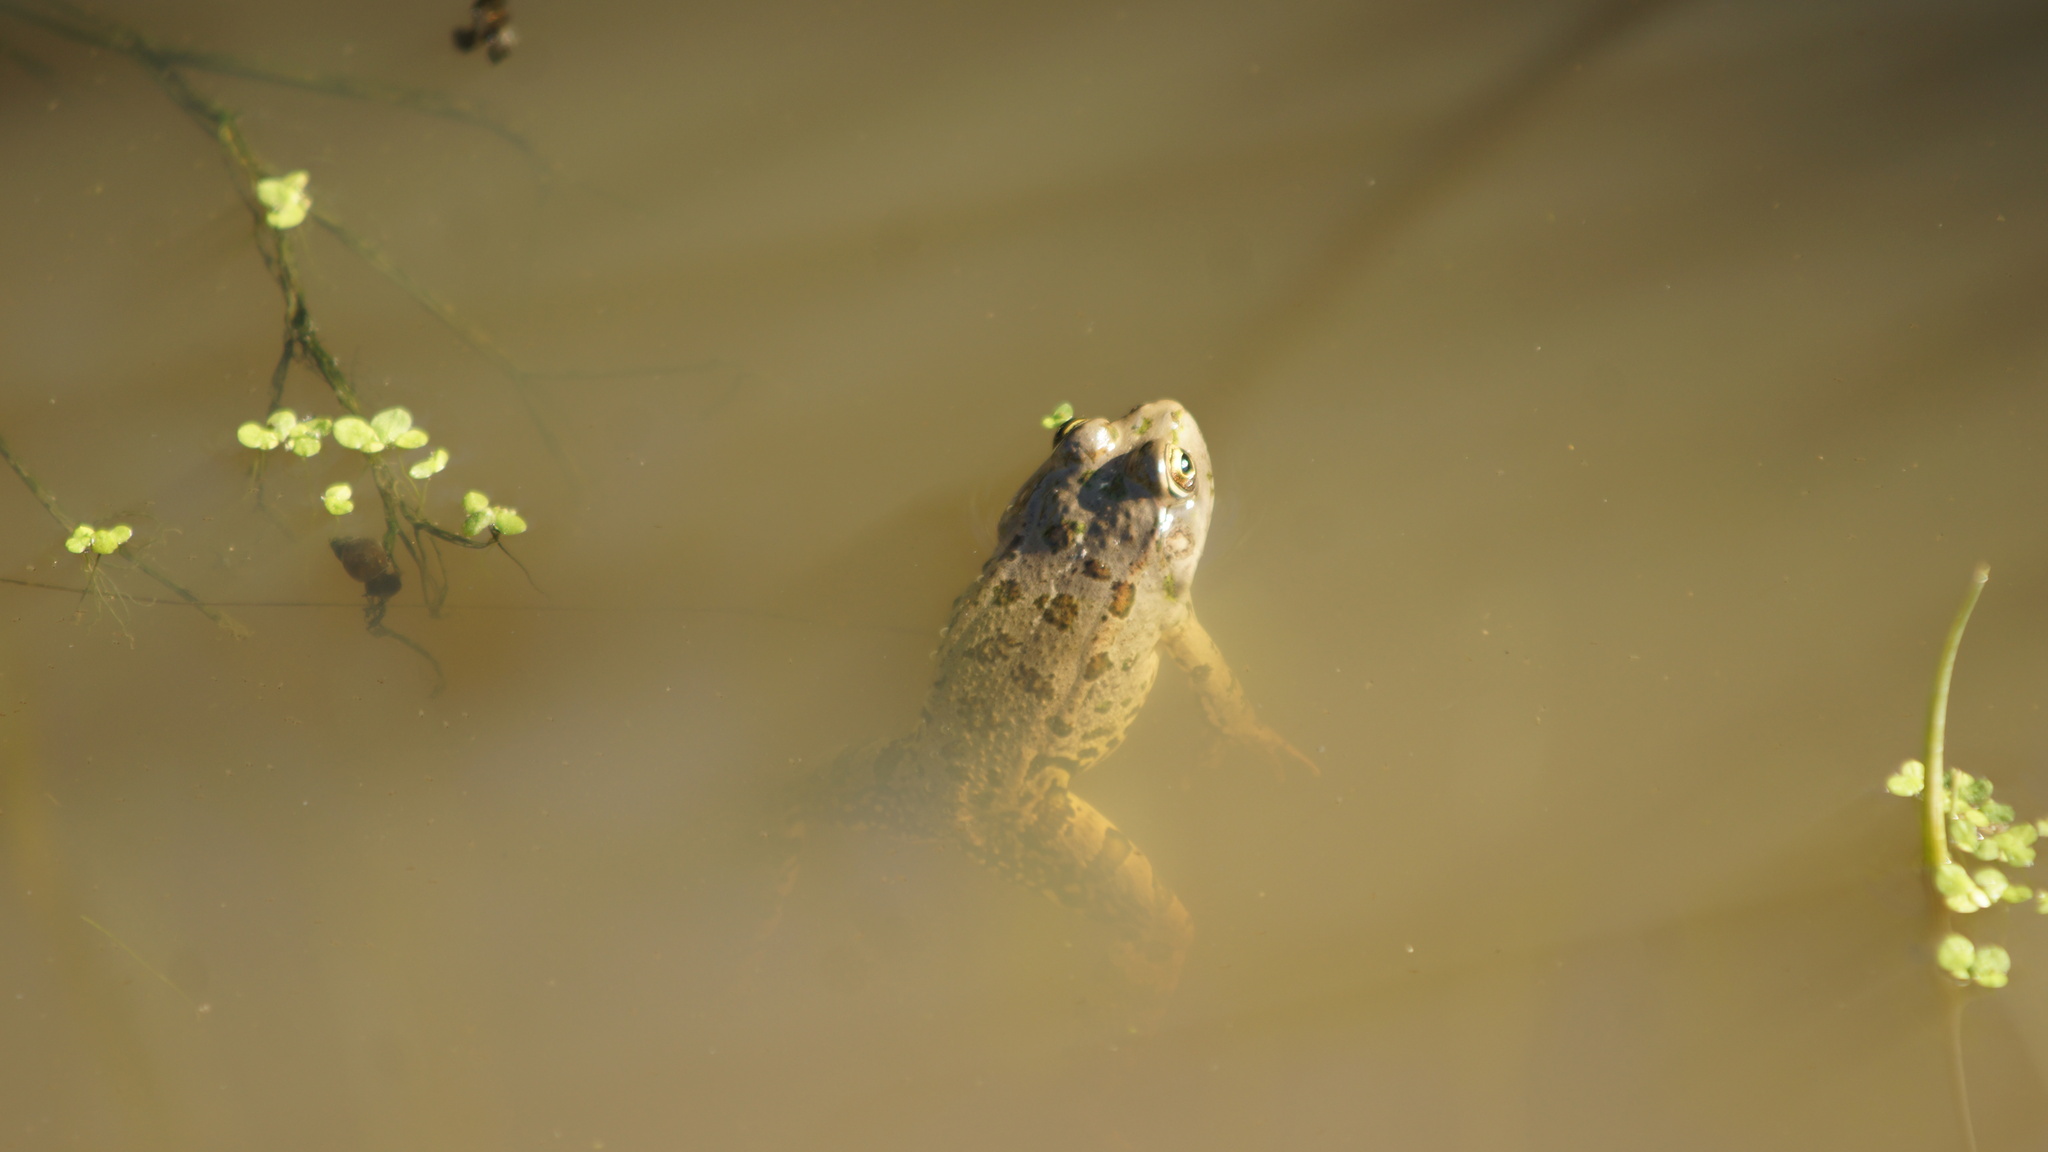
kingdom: Animalia
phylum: Chordata
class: Amphibia
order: Anura
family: Ranidae
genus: Pelophylax
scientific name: Pelophylax ridibundus
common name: Marsh frog
